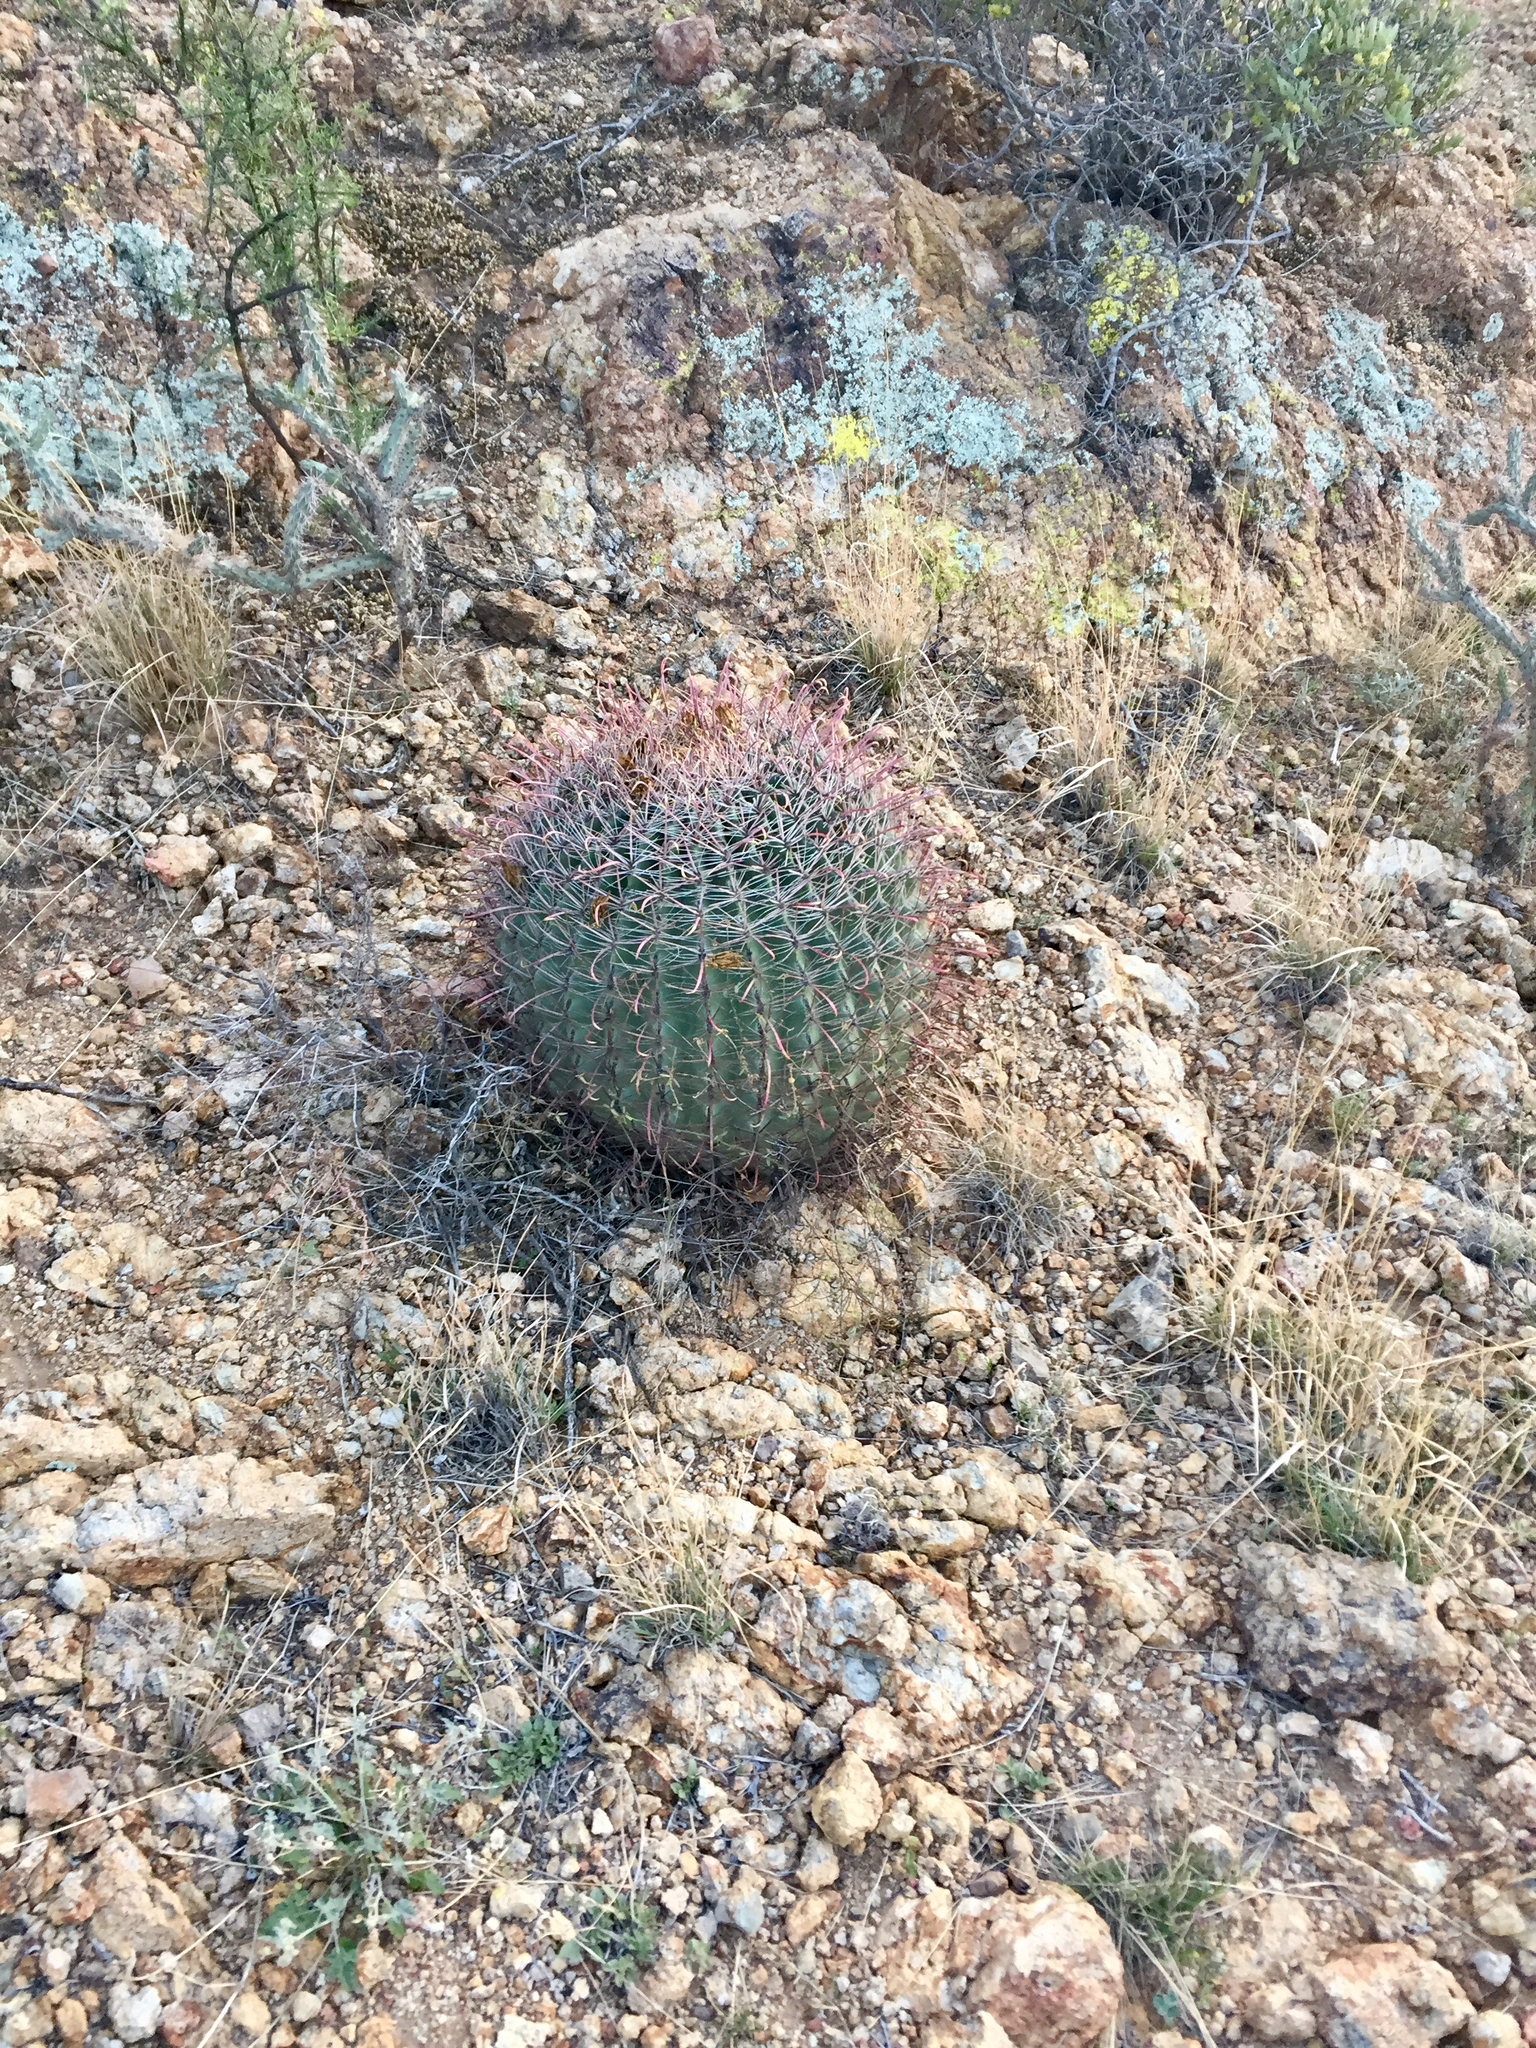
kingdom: Plantae
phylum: Tracheophyta
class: Magnoliopsida
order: Caryophyllales
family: Cactaceae
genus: Ferocactus
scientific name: Ferocactus wislizeni
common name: Candy barrel cactus
